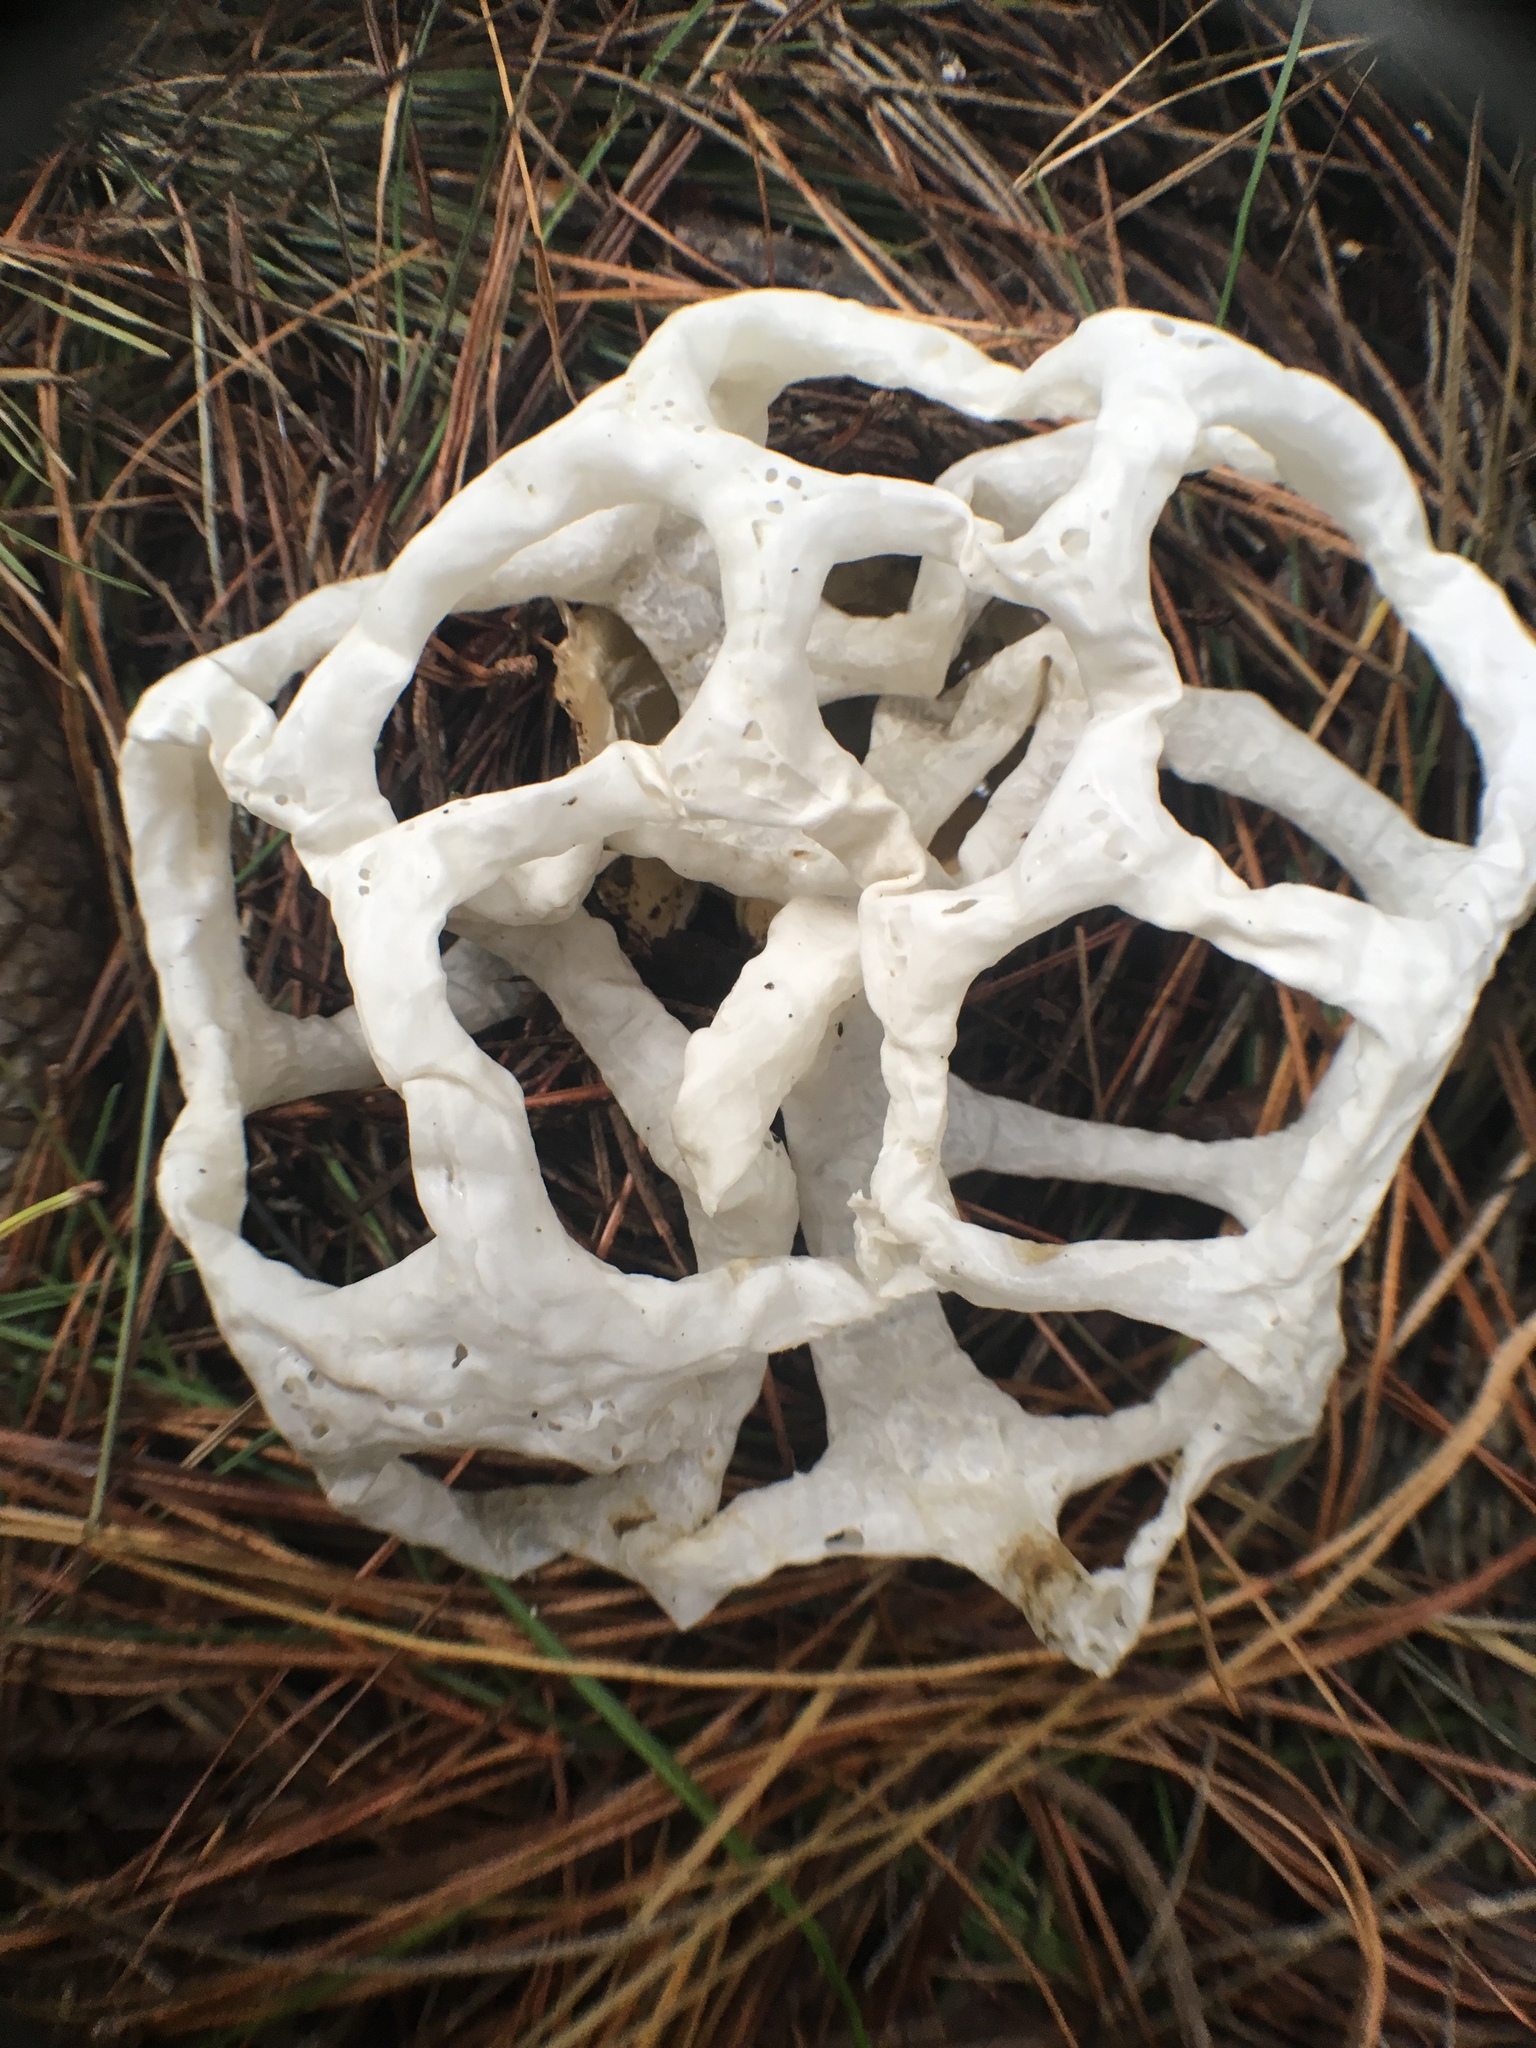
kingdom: Fungi
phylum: Basidiomycota
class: Agaricomycetes
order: Phallales
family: Phallaceae
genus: Ileodictyon
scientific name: Ileodictyon cibarium
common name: Basket fungus
